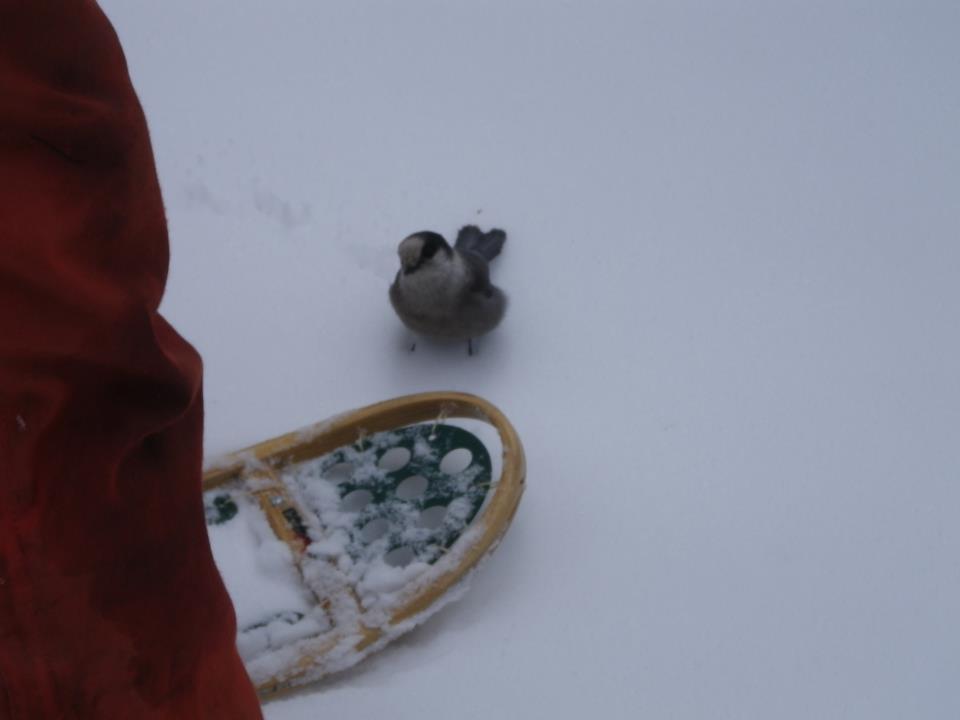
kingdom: Animalia
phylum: Chordata
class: Aves
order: Passeriformes
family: Corvidae
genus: Perisoreus
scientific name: Perisoreus canadensis
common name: Gray jay
